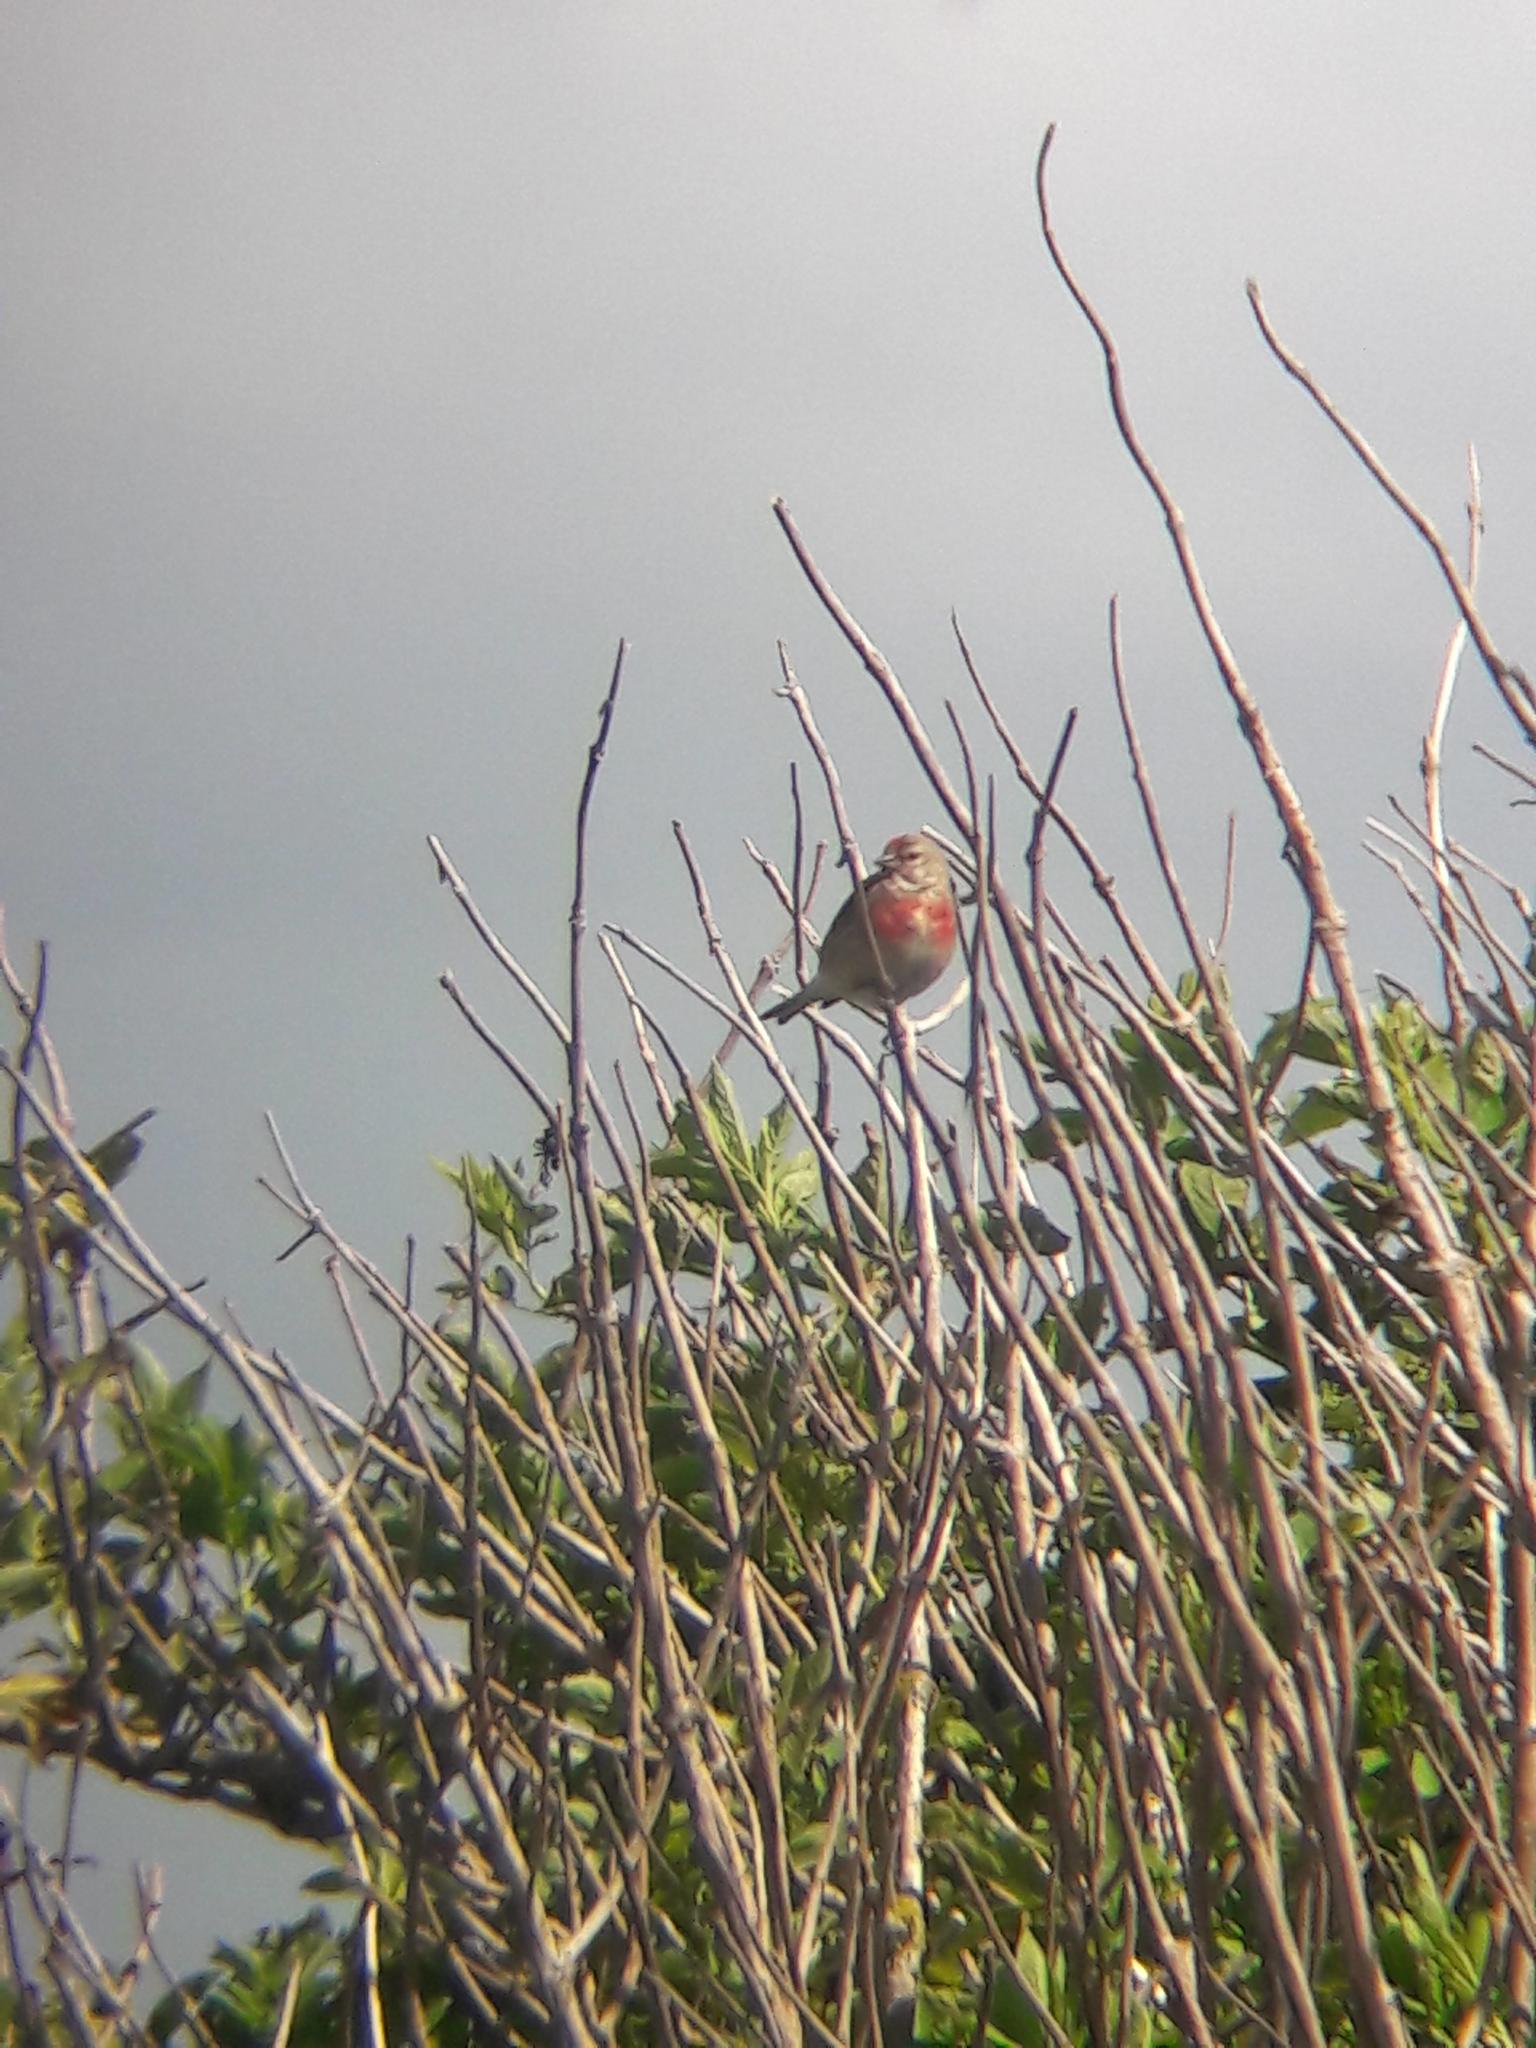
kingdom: Animalia
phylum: Chordata
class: Aves
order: Passeriformes
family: Fringillidae
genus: Linaria
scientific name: Linaria cannabina
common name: Common linnet
